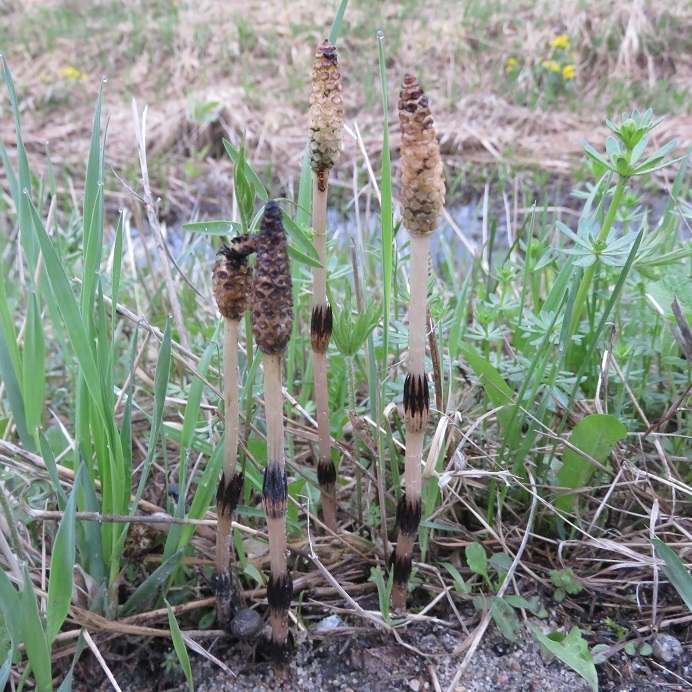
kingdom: Plantae
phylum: Tracheophyta
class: Polypodiopsida
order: Equisetales
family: Equisetaceae
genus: Equisetum
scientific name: Equisetum arvense
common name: Field horsetail
